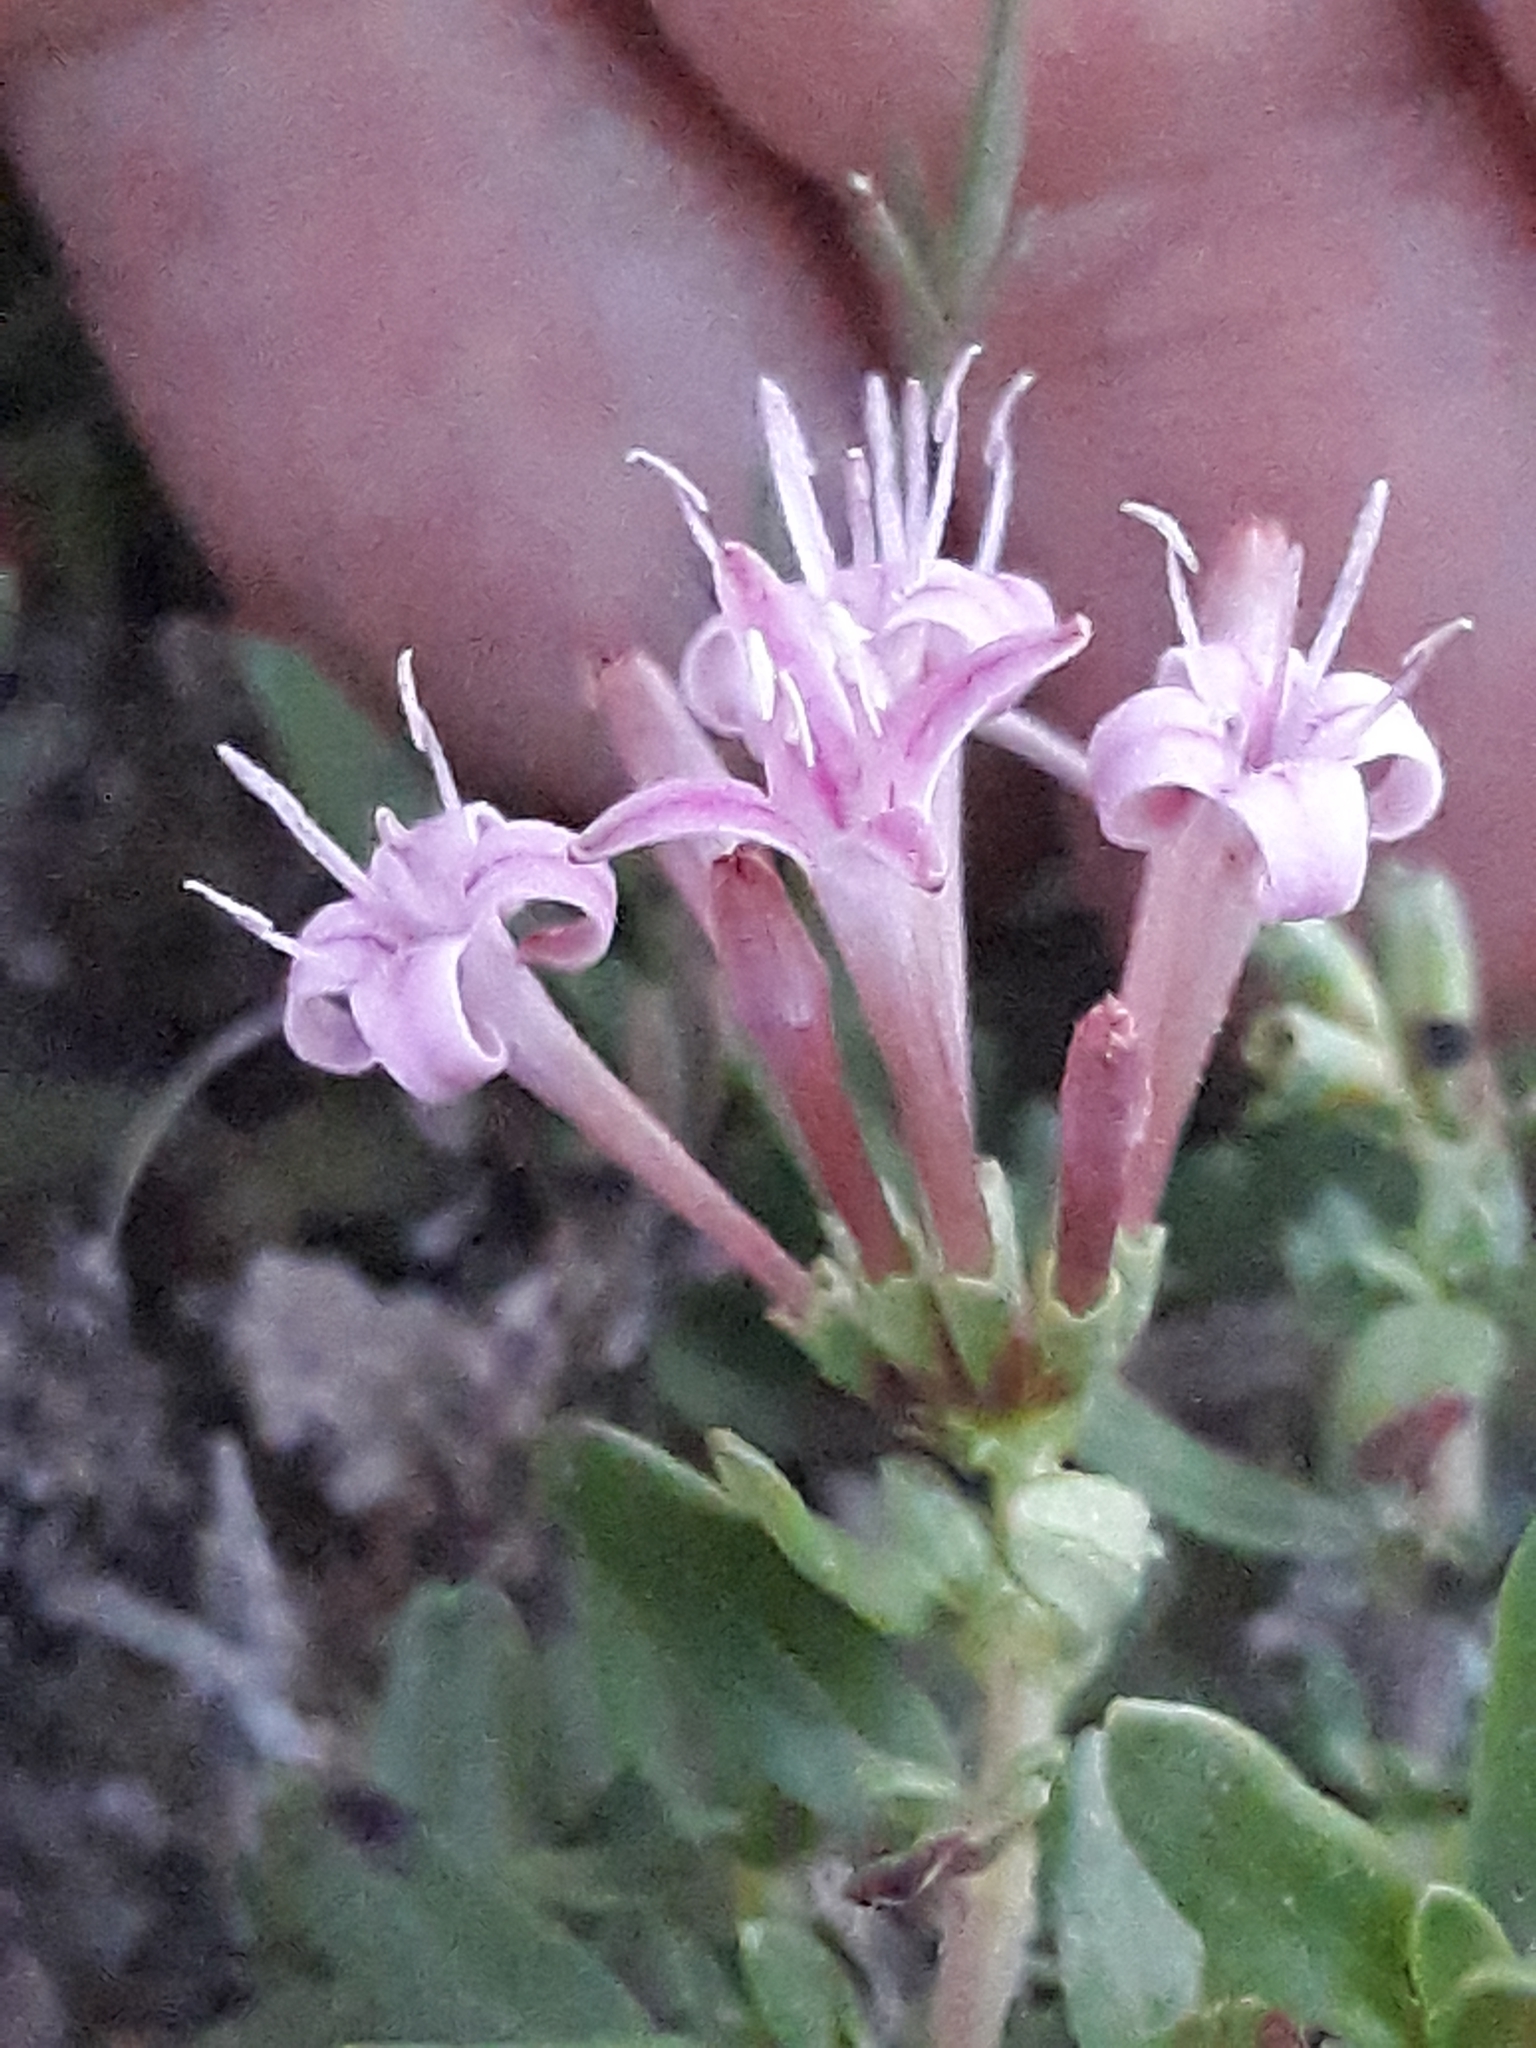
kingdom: Plantae
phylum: Tracheophyta
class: Magnoliopsida
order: Gentianales
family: Rubiaceae
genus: Plocama
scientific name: Plocama calabrica
